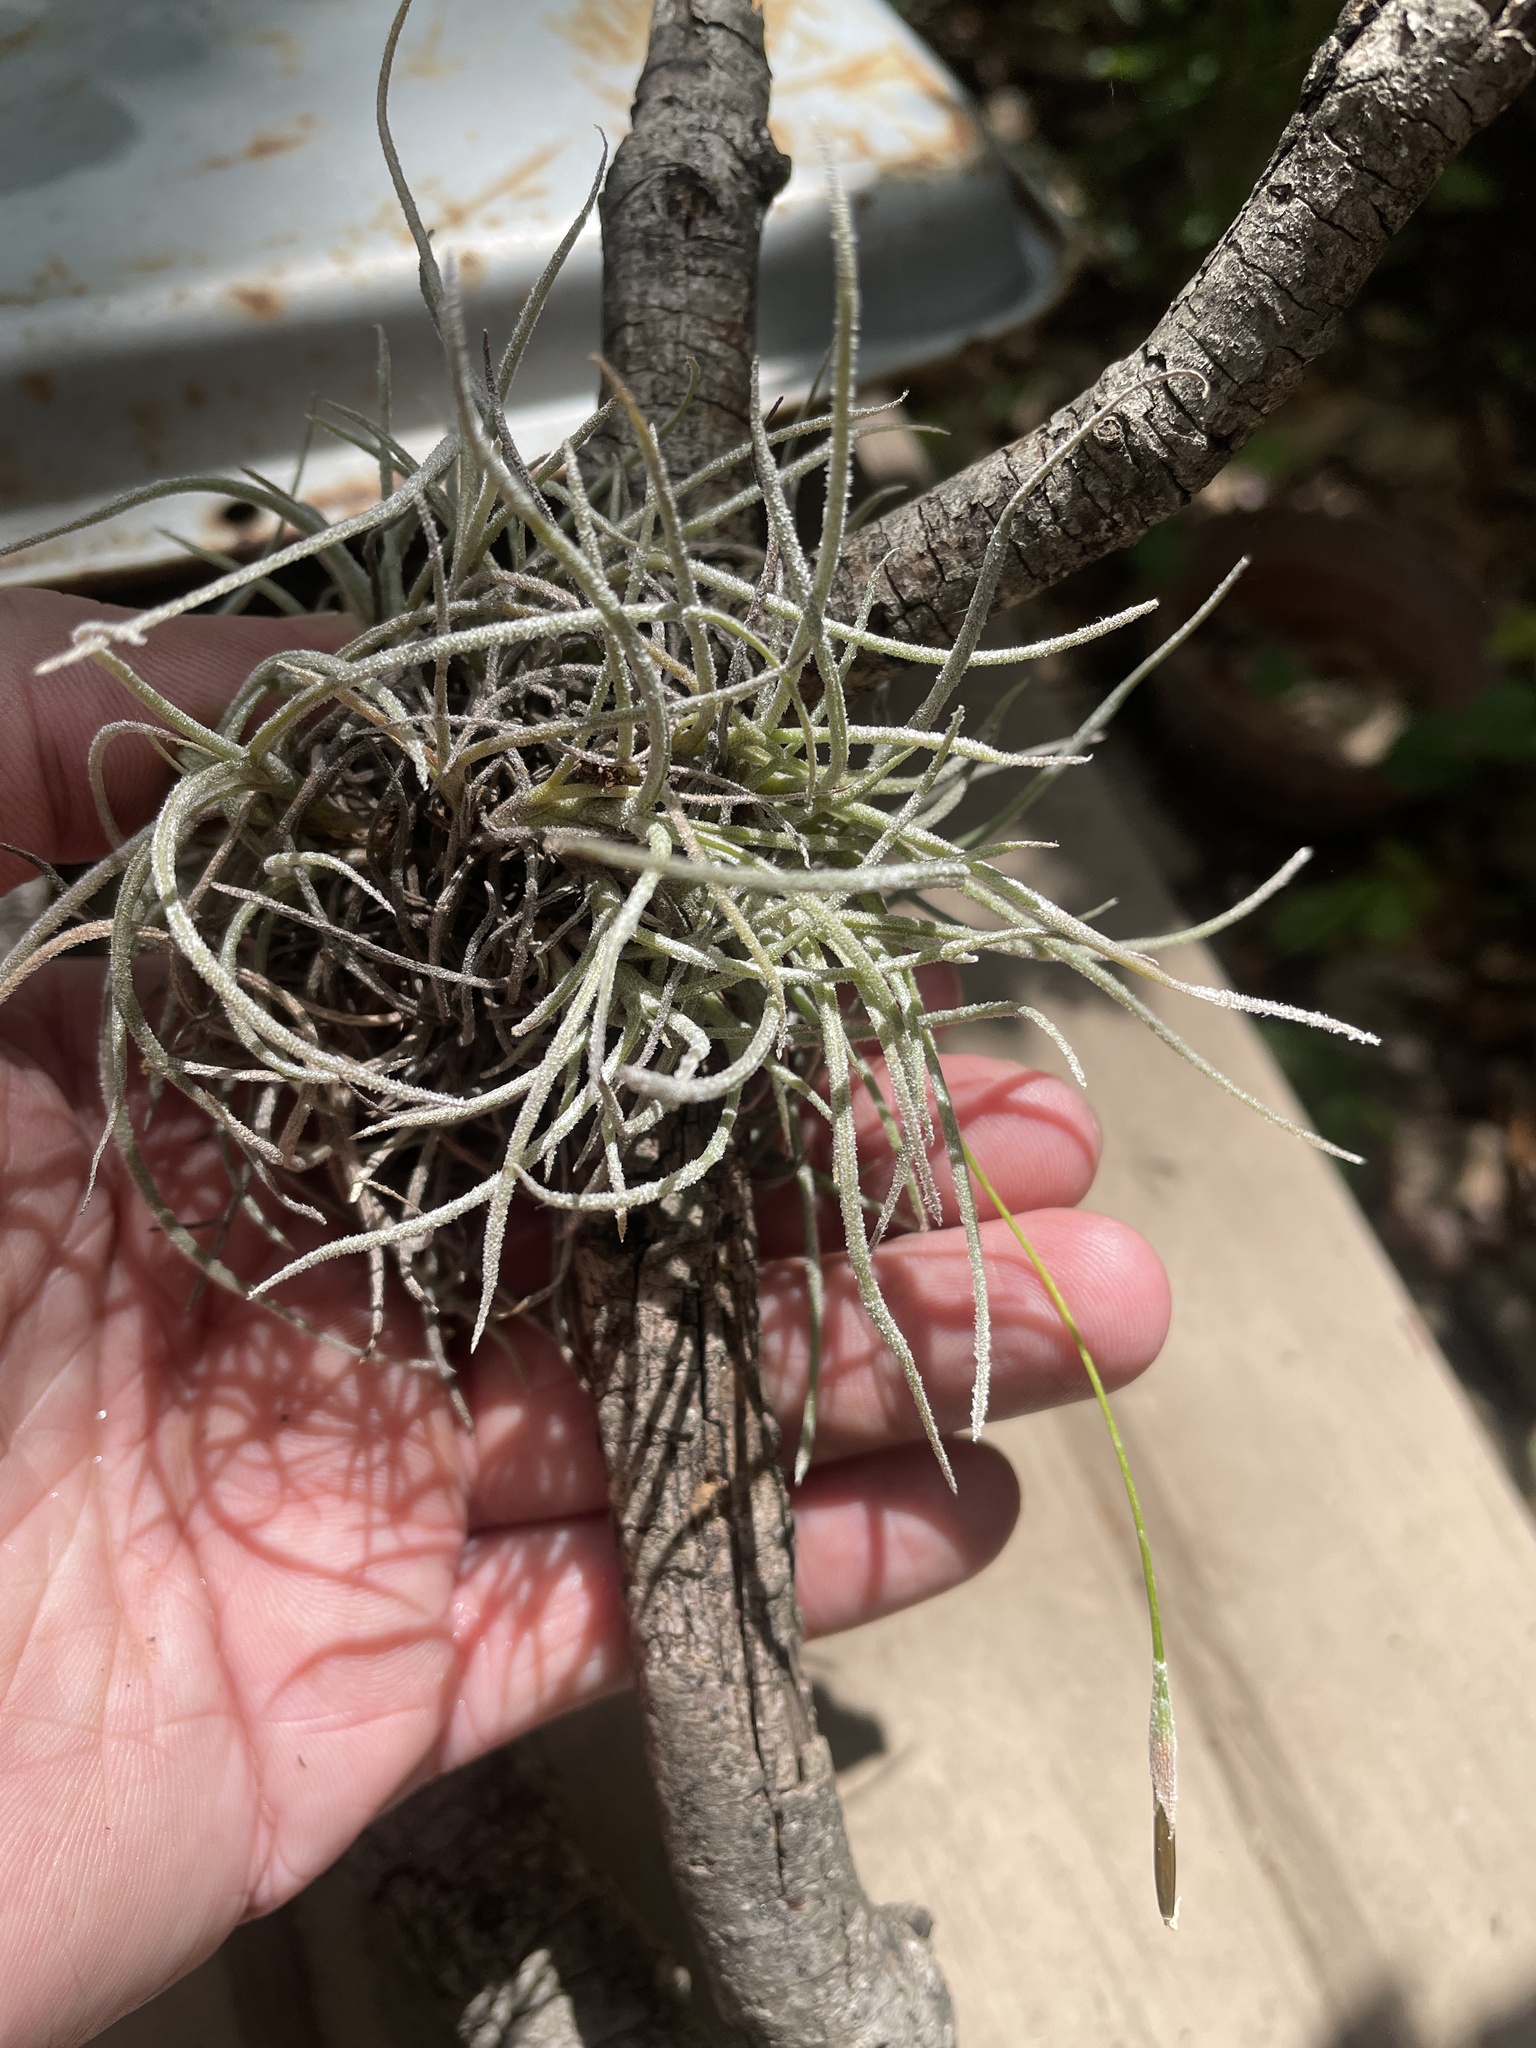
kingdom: Plantae
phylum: Tracheophyta
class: Liliopsida
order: Poales
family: Bromeliaceae
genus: Tillandsia
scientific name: Tillandsia recurvata
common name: Small ballmoss
